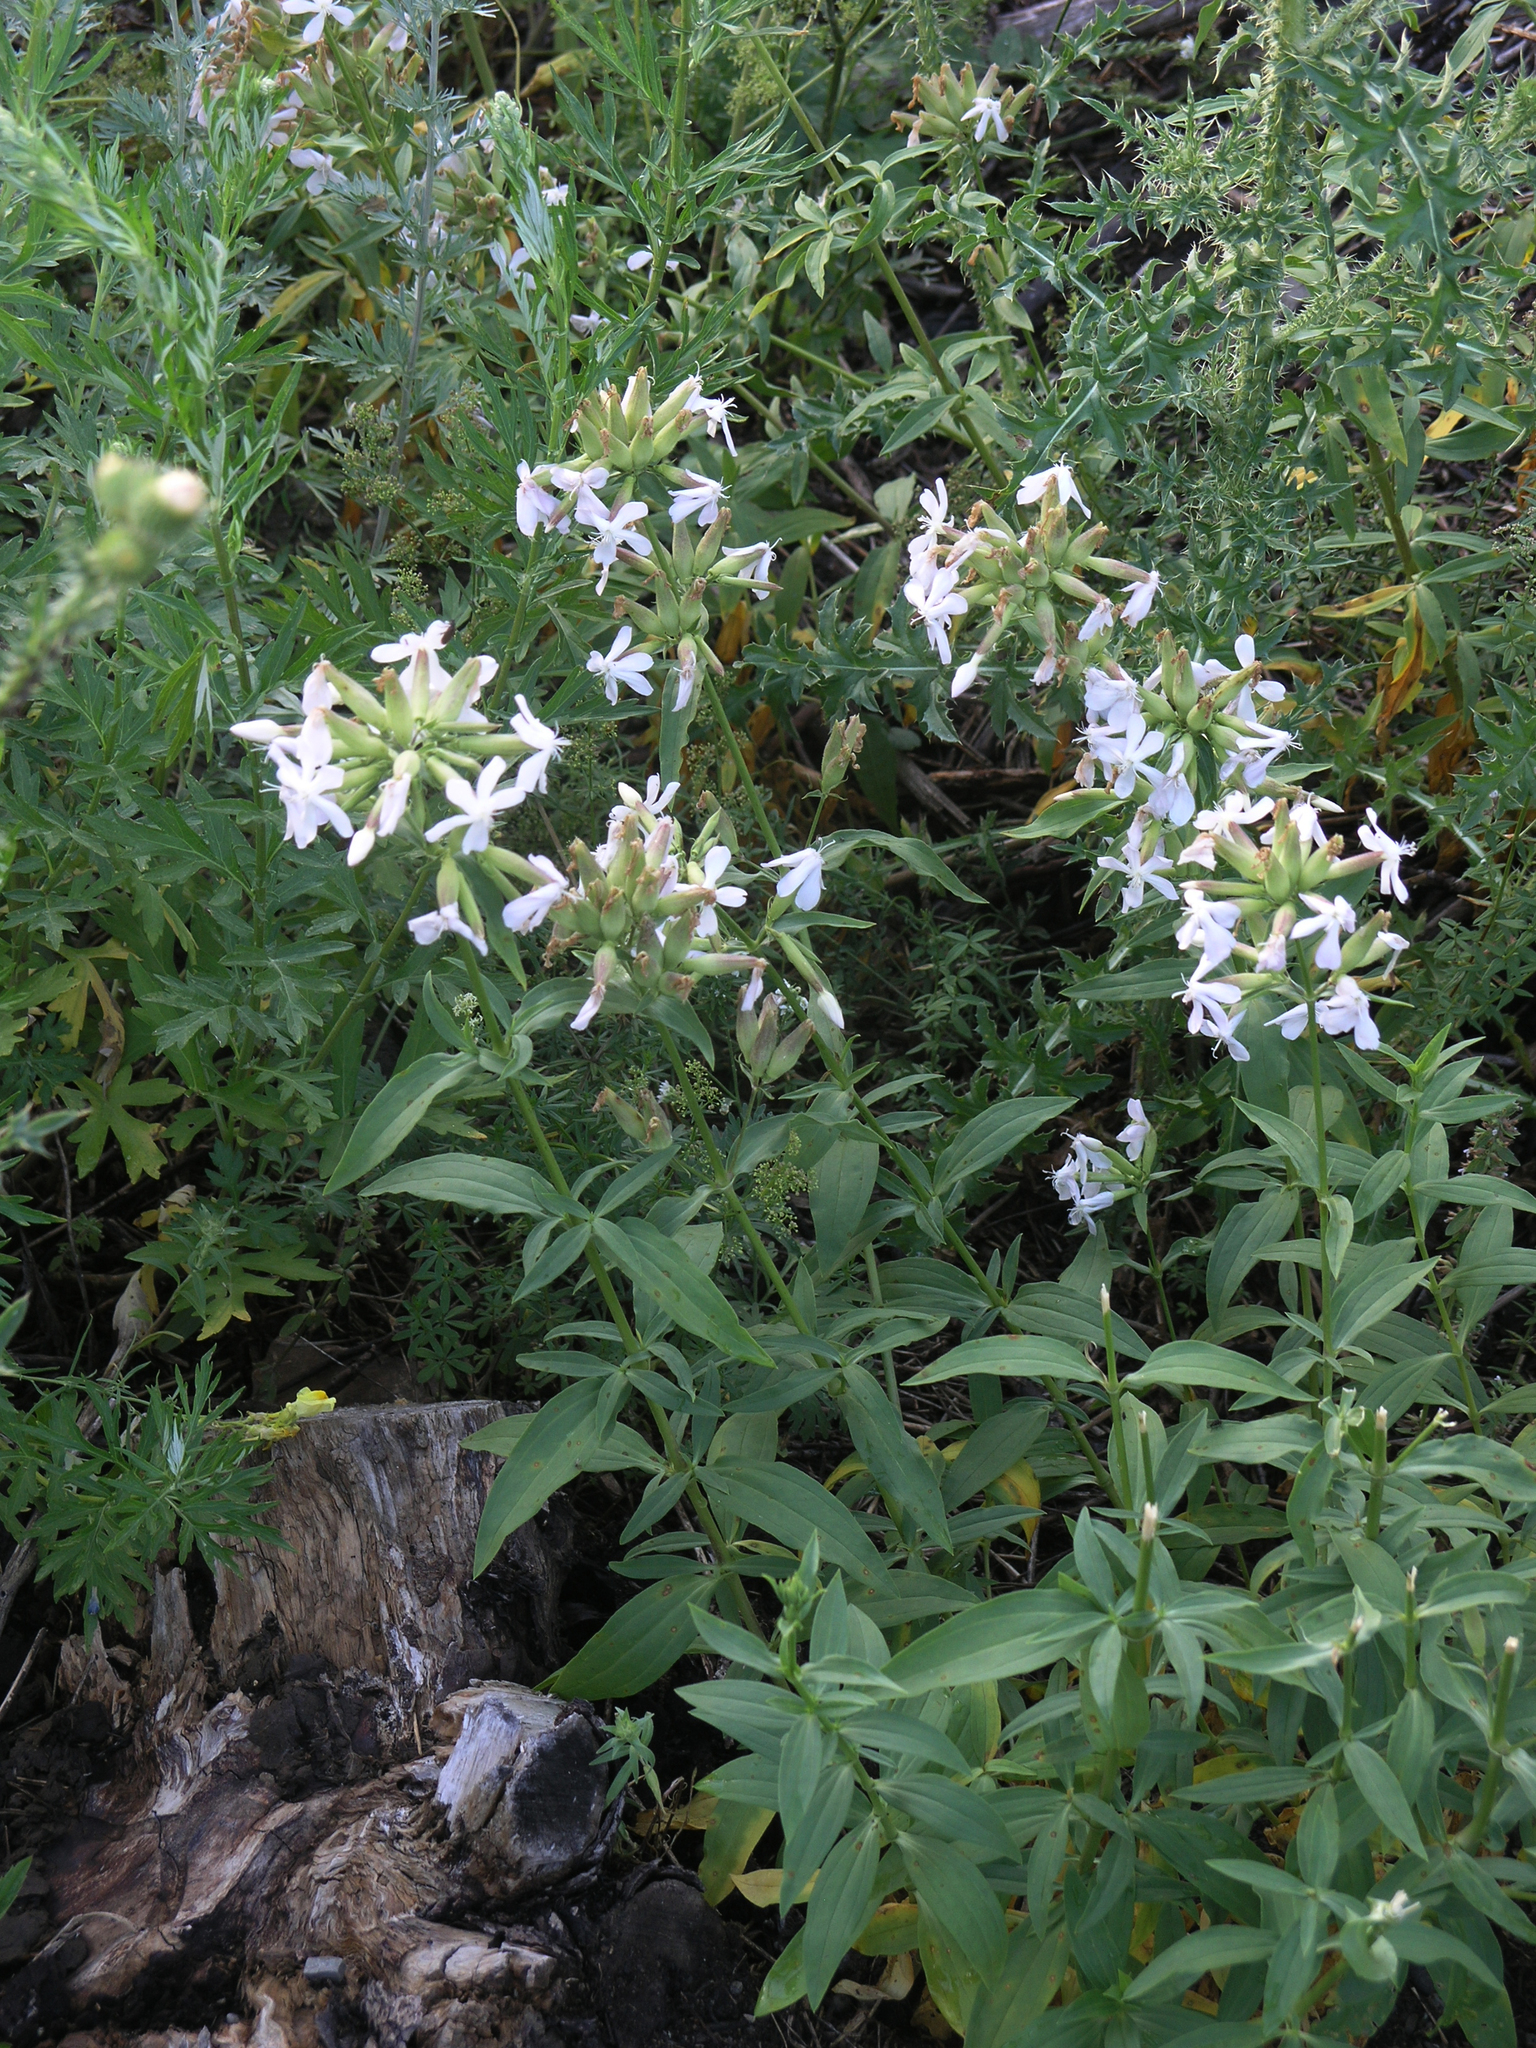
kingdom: Plantae
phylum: Tracheophyta
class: Magnoliopsida
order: Caryophyllales
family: Caryophyllaceae
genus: Saponaria
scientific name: Saponaria officinalis
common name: Soapwort
